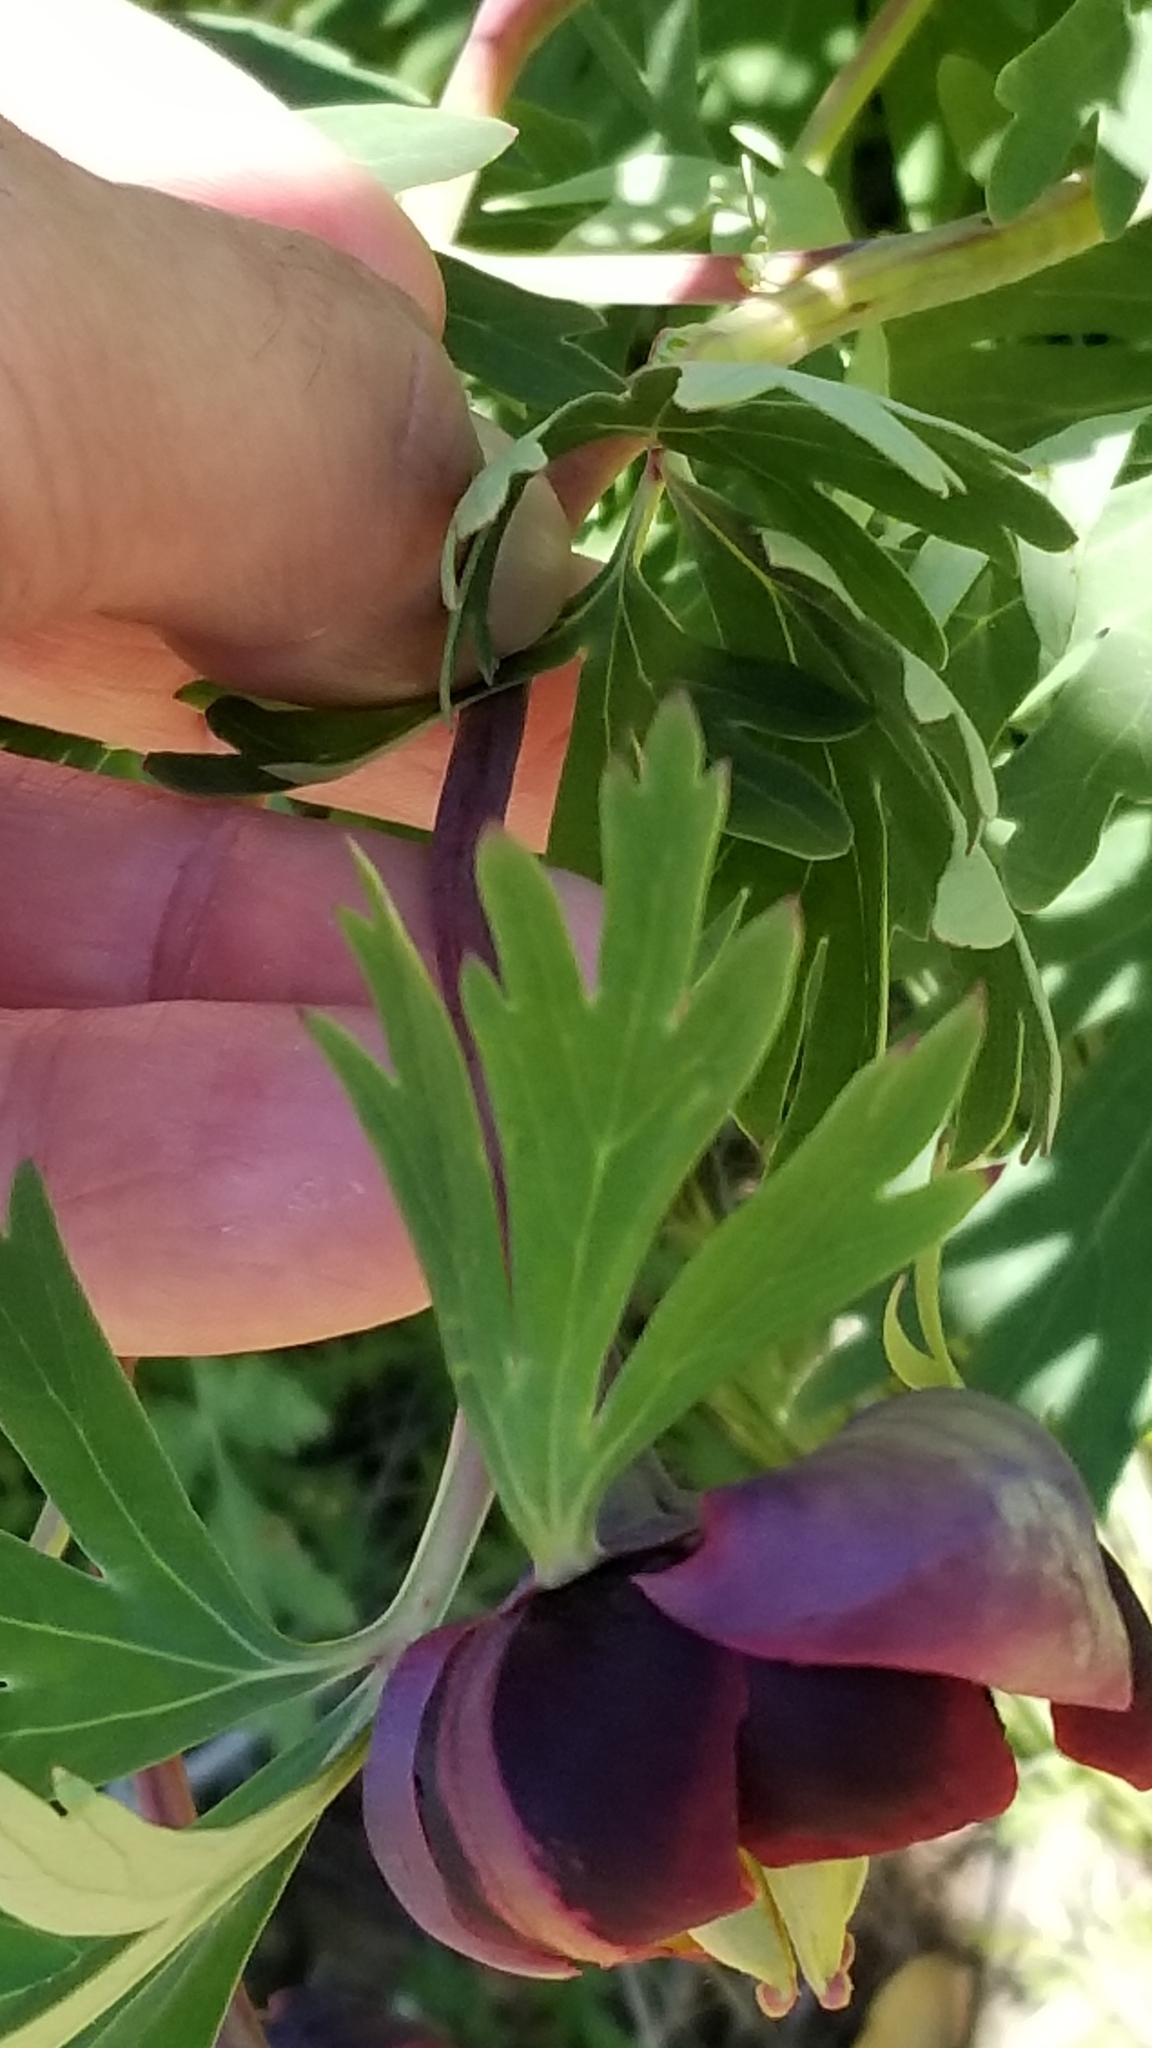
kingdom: Plantae
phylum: Tracheophyta
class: Magnoliopsida
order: Saxifragales
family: Paeoniaceae
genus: Paeonia
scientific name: Paeonia californica
